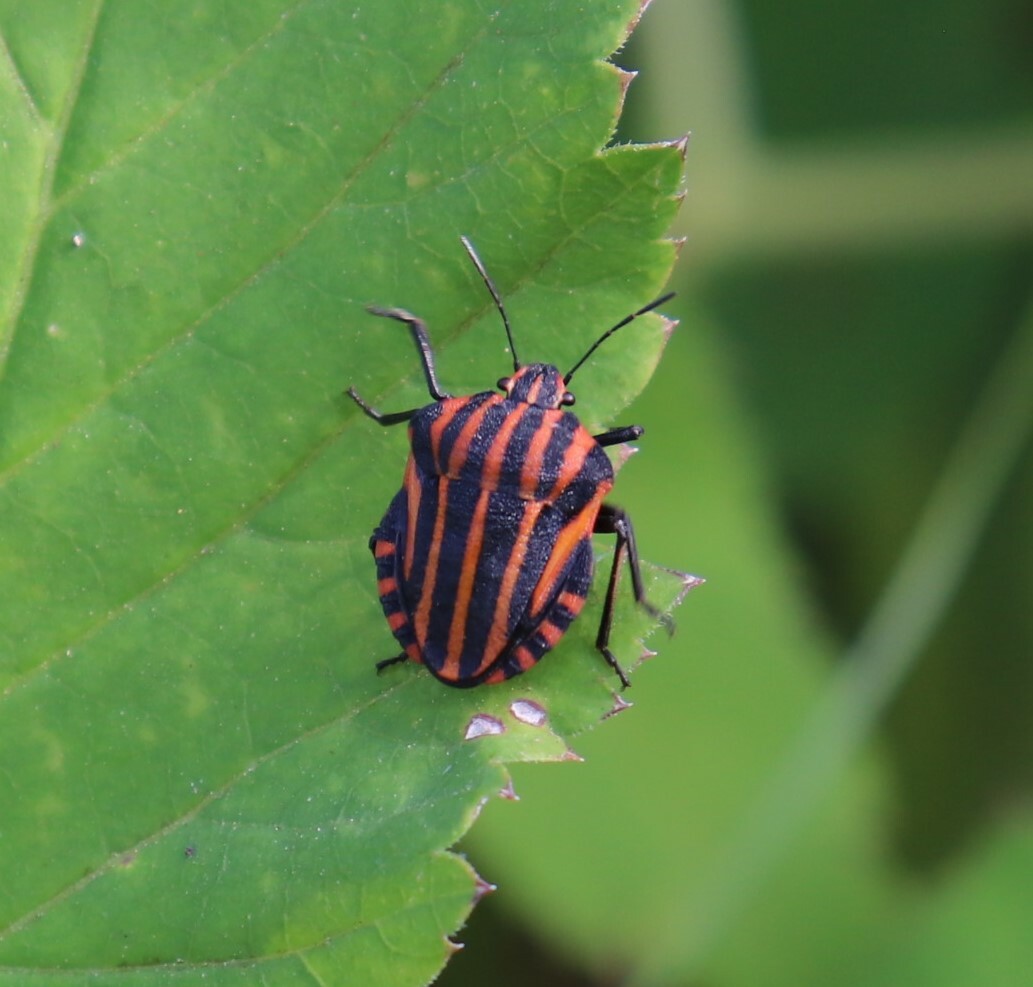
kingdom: Animalia
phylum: Arthropoda
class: Insecta
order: Hemiptera
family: Pentatomidae
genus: Graphosoma
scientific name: Graphosoma italicum
